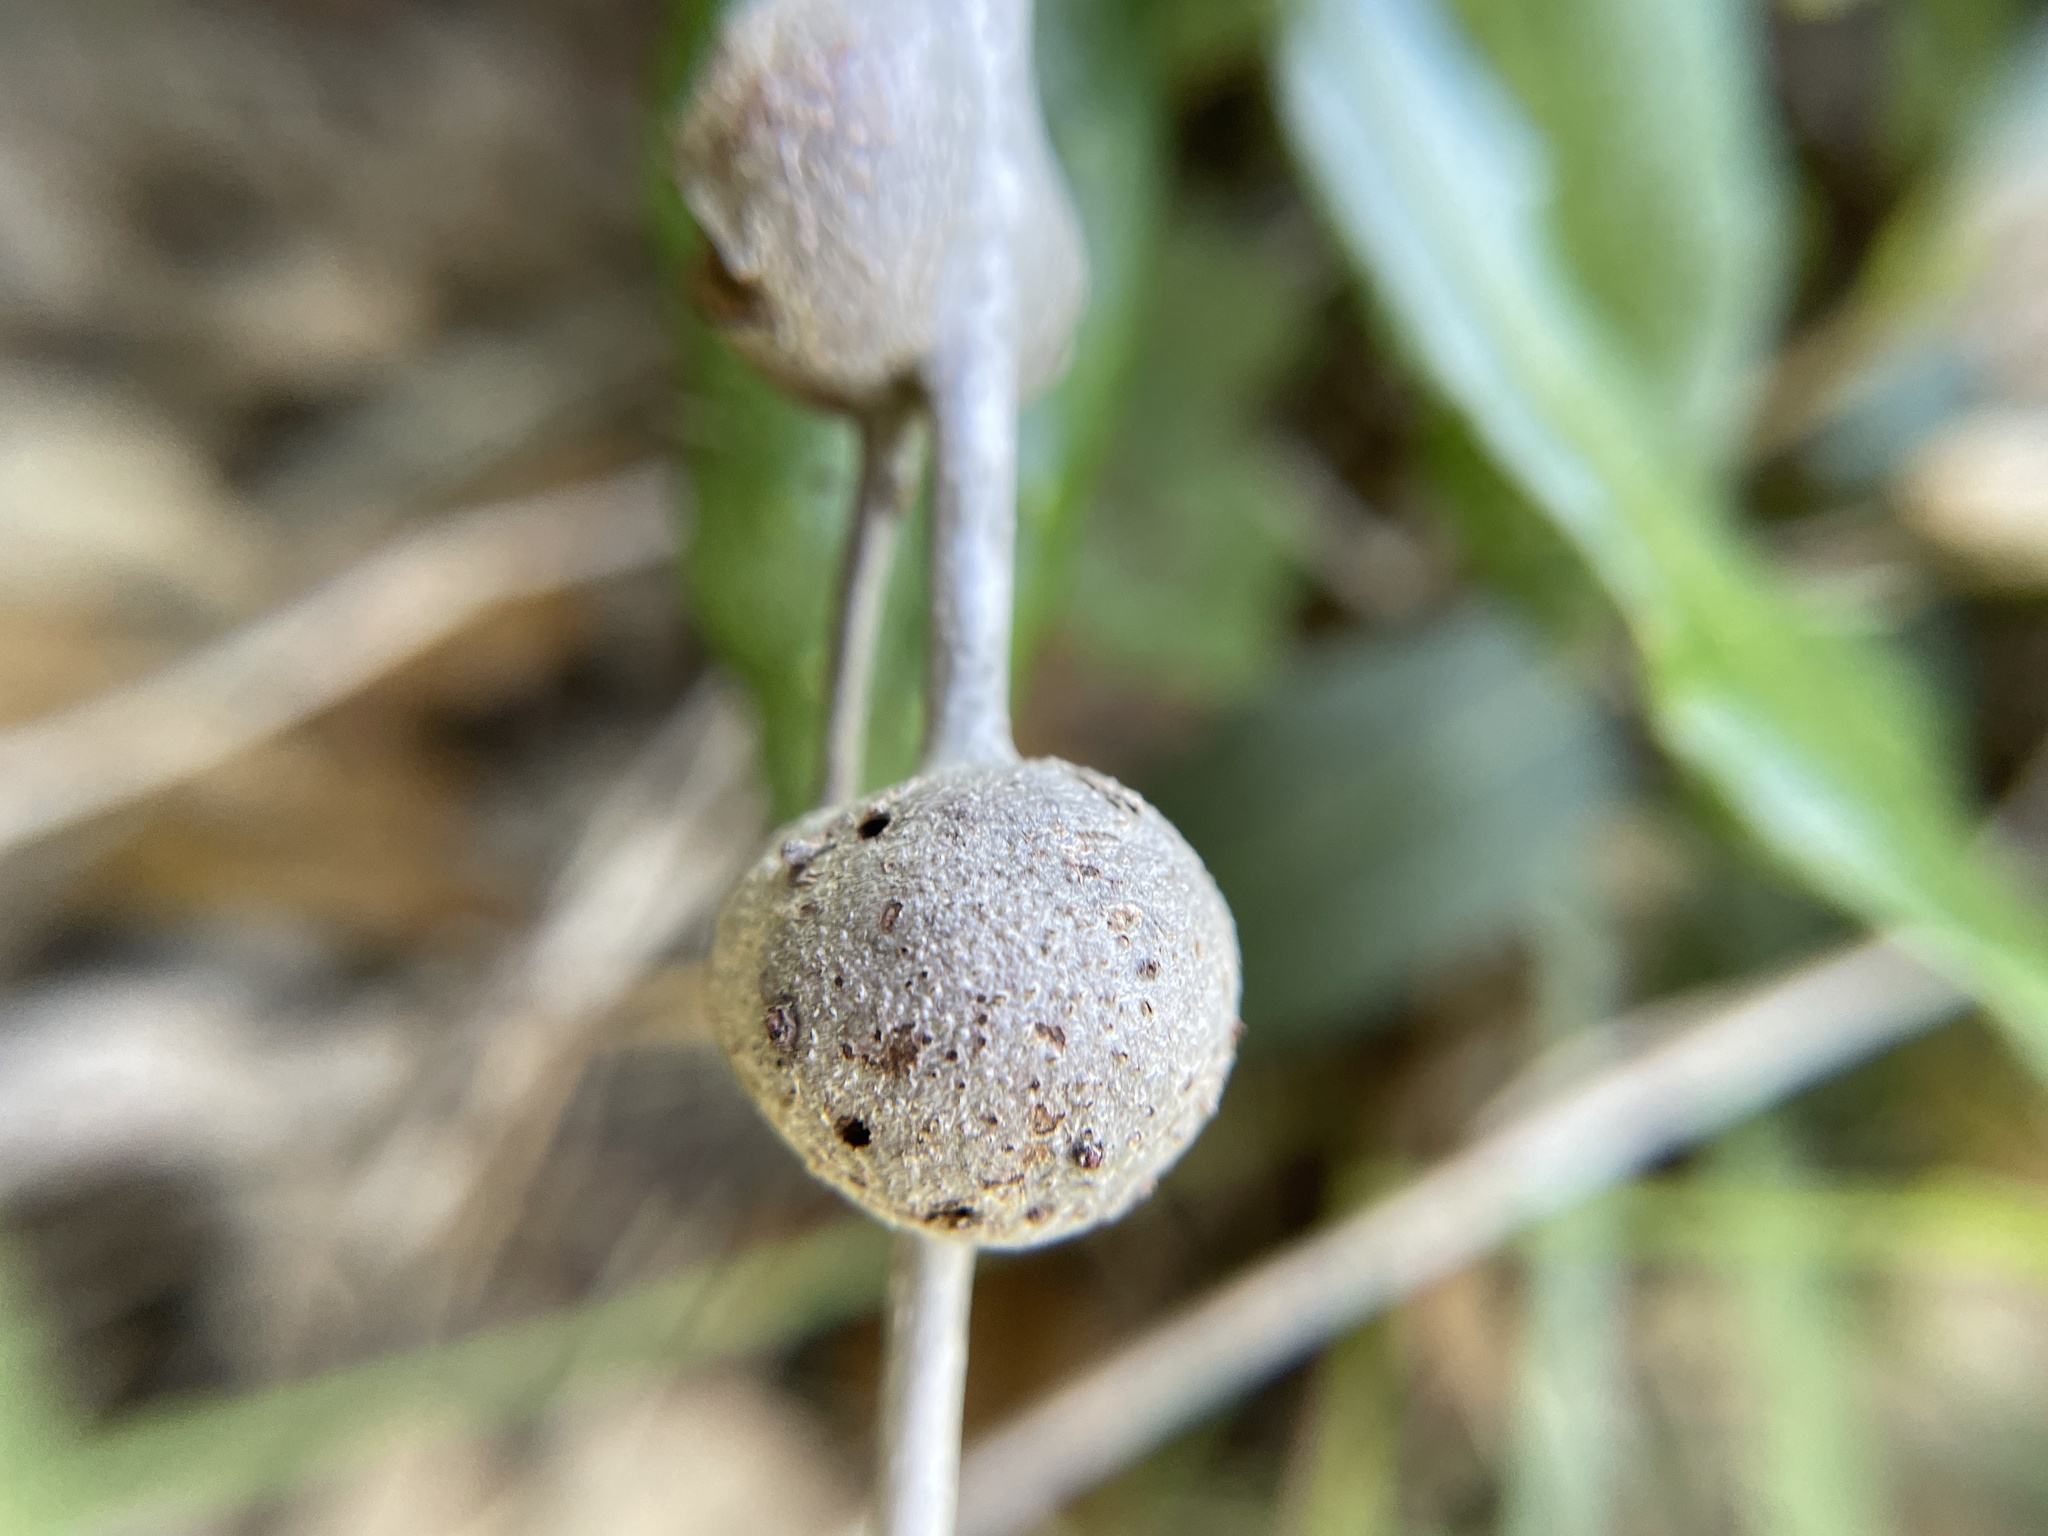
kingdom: Animalia
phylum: Arthropoda
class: Insecta
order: Hymenoptera
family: Cynipidae
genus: Callirhytis
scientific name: Callirhytis
